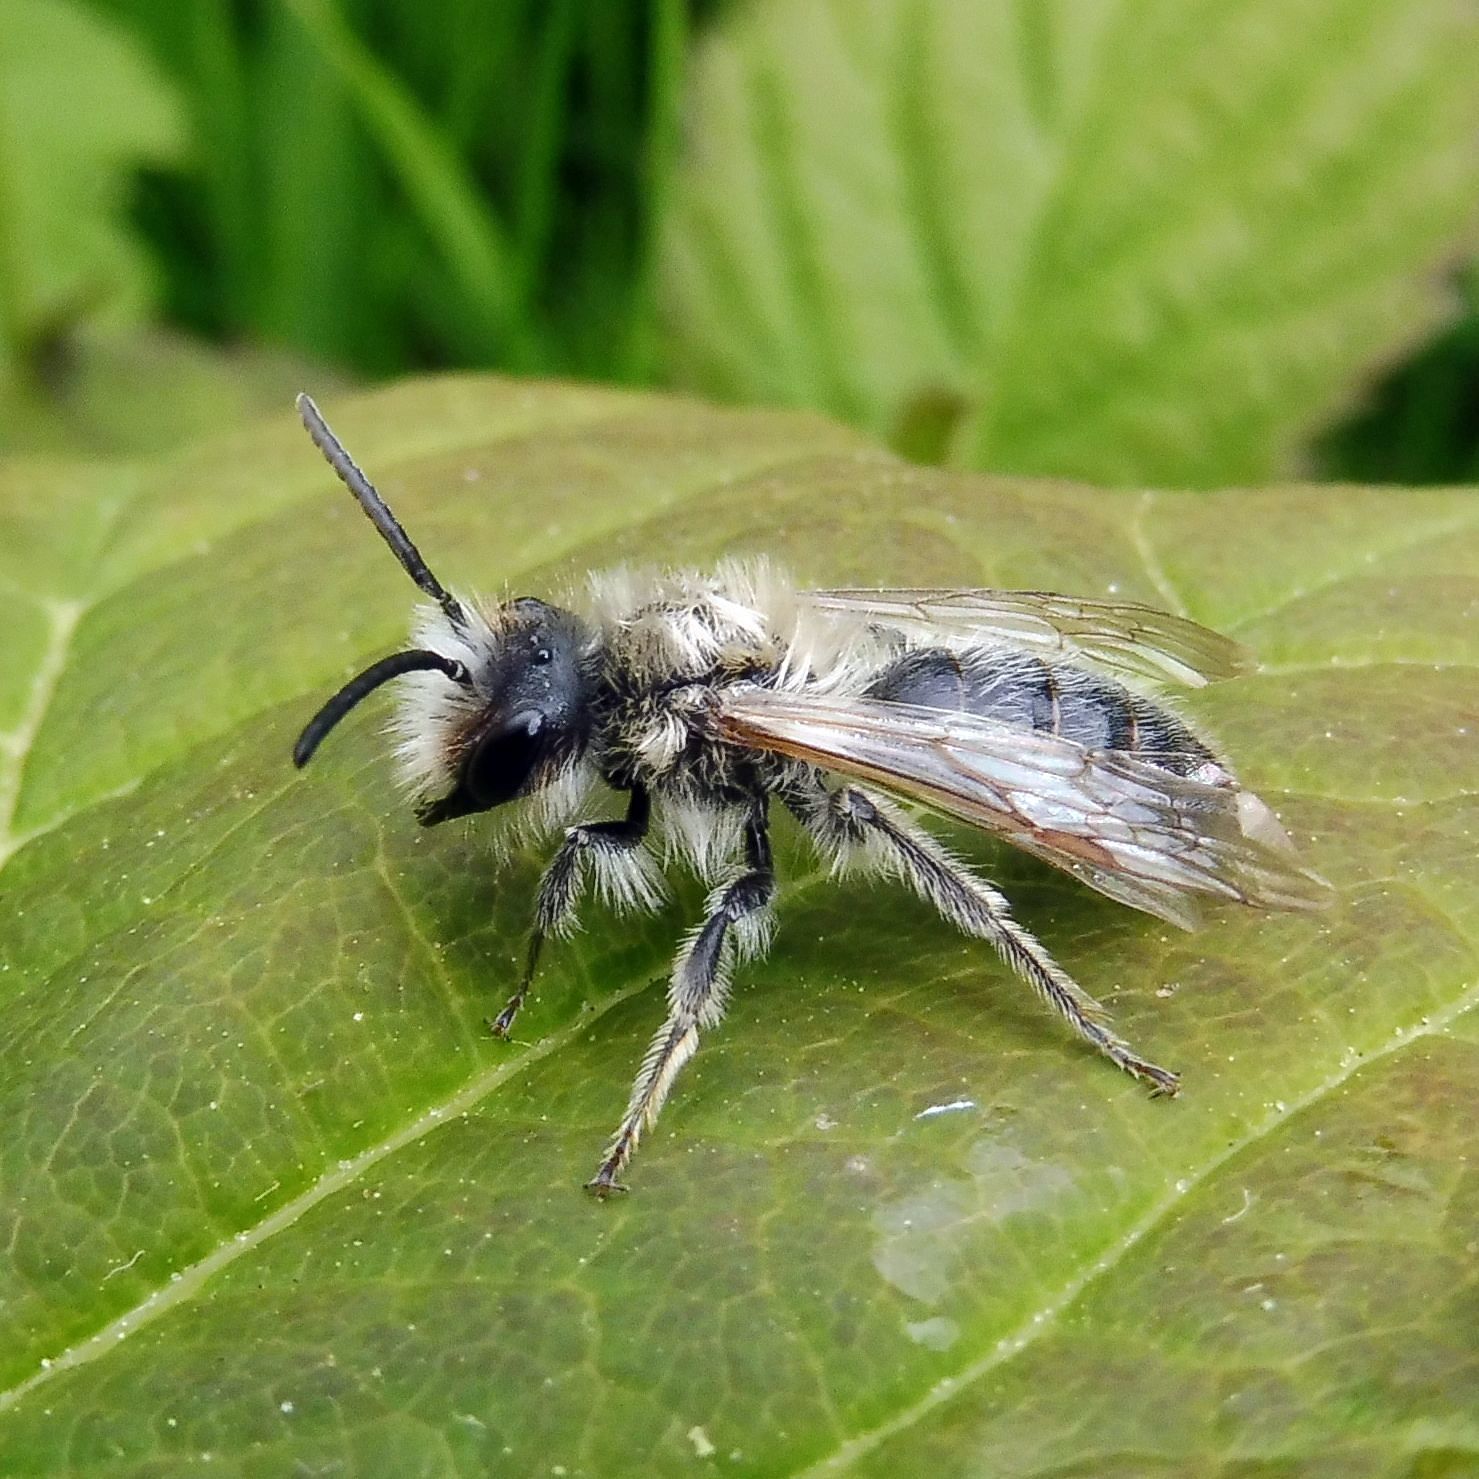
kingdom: Animalia
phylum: Arthropoda
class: Insecta
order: Hymenoptera
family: Andrenidae
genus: Andrena
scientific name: Andrena vaga
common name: Grey-backed mining bee
